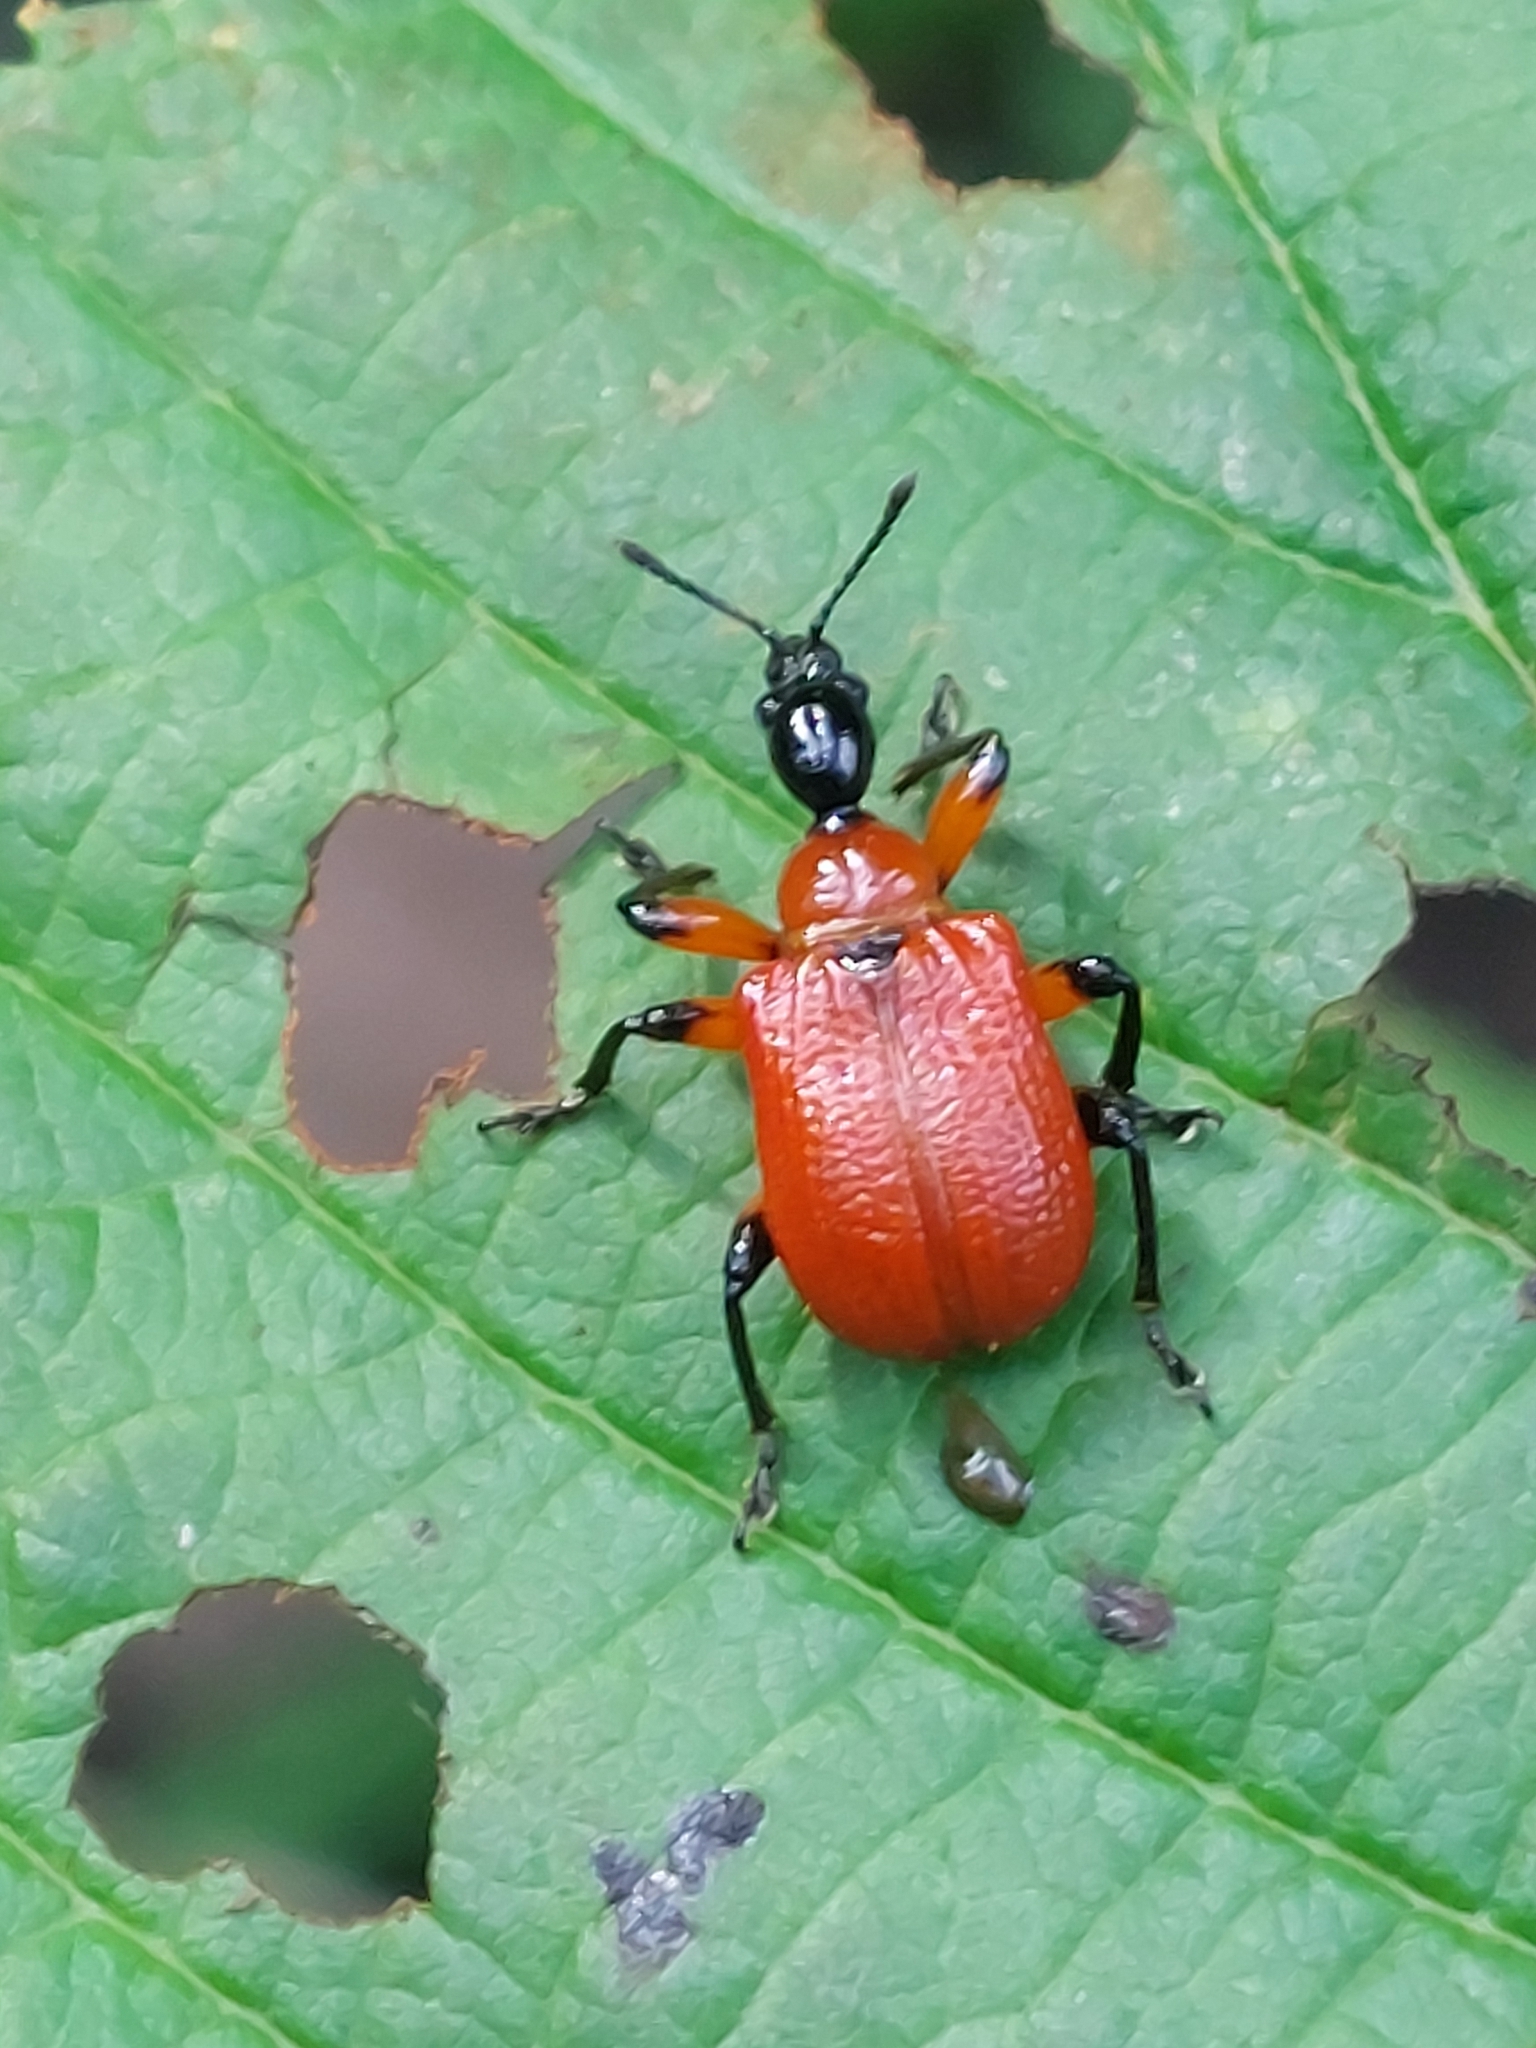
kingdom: Animalia
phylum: Arthropoda
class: Insecta
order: Coleoptera
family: Attelabidae
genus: Apoderus
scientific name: Apoderus coryli
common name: Hazel leaf roller
